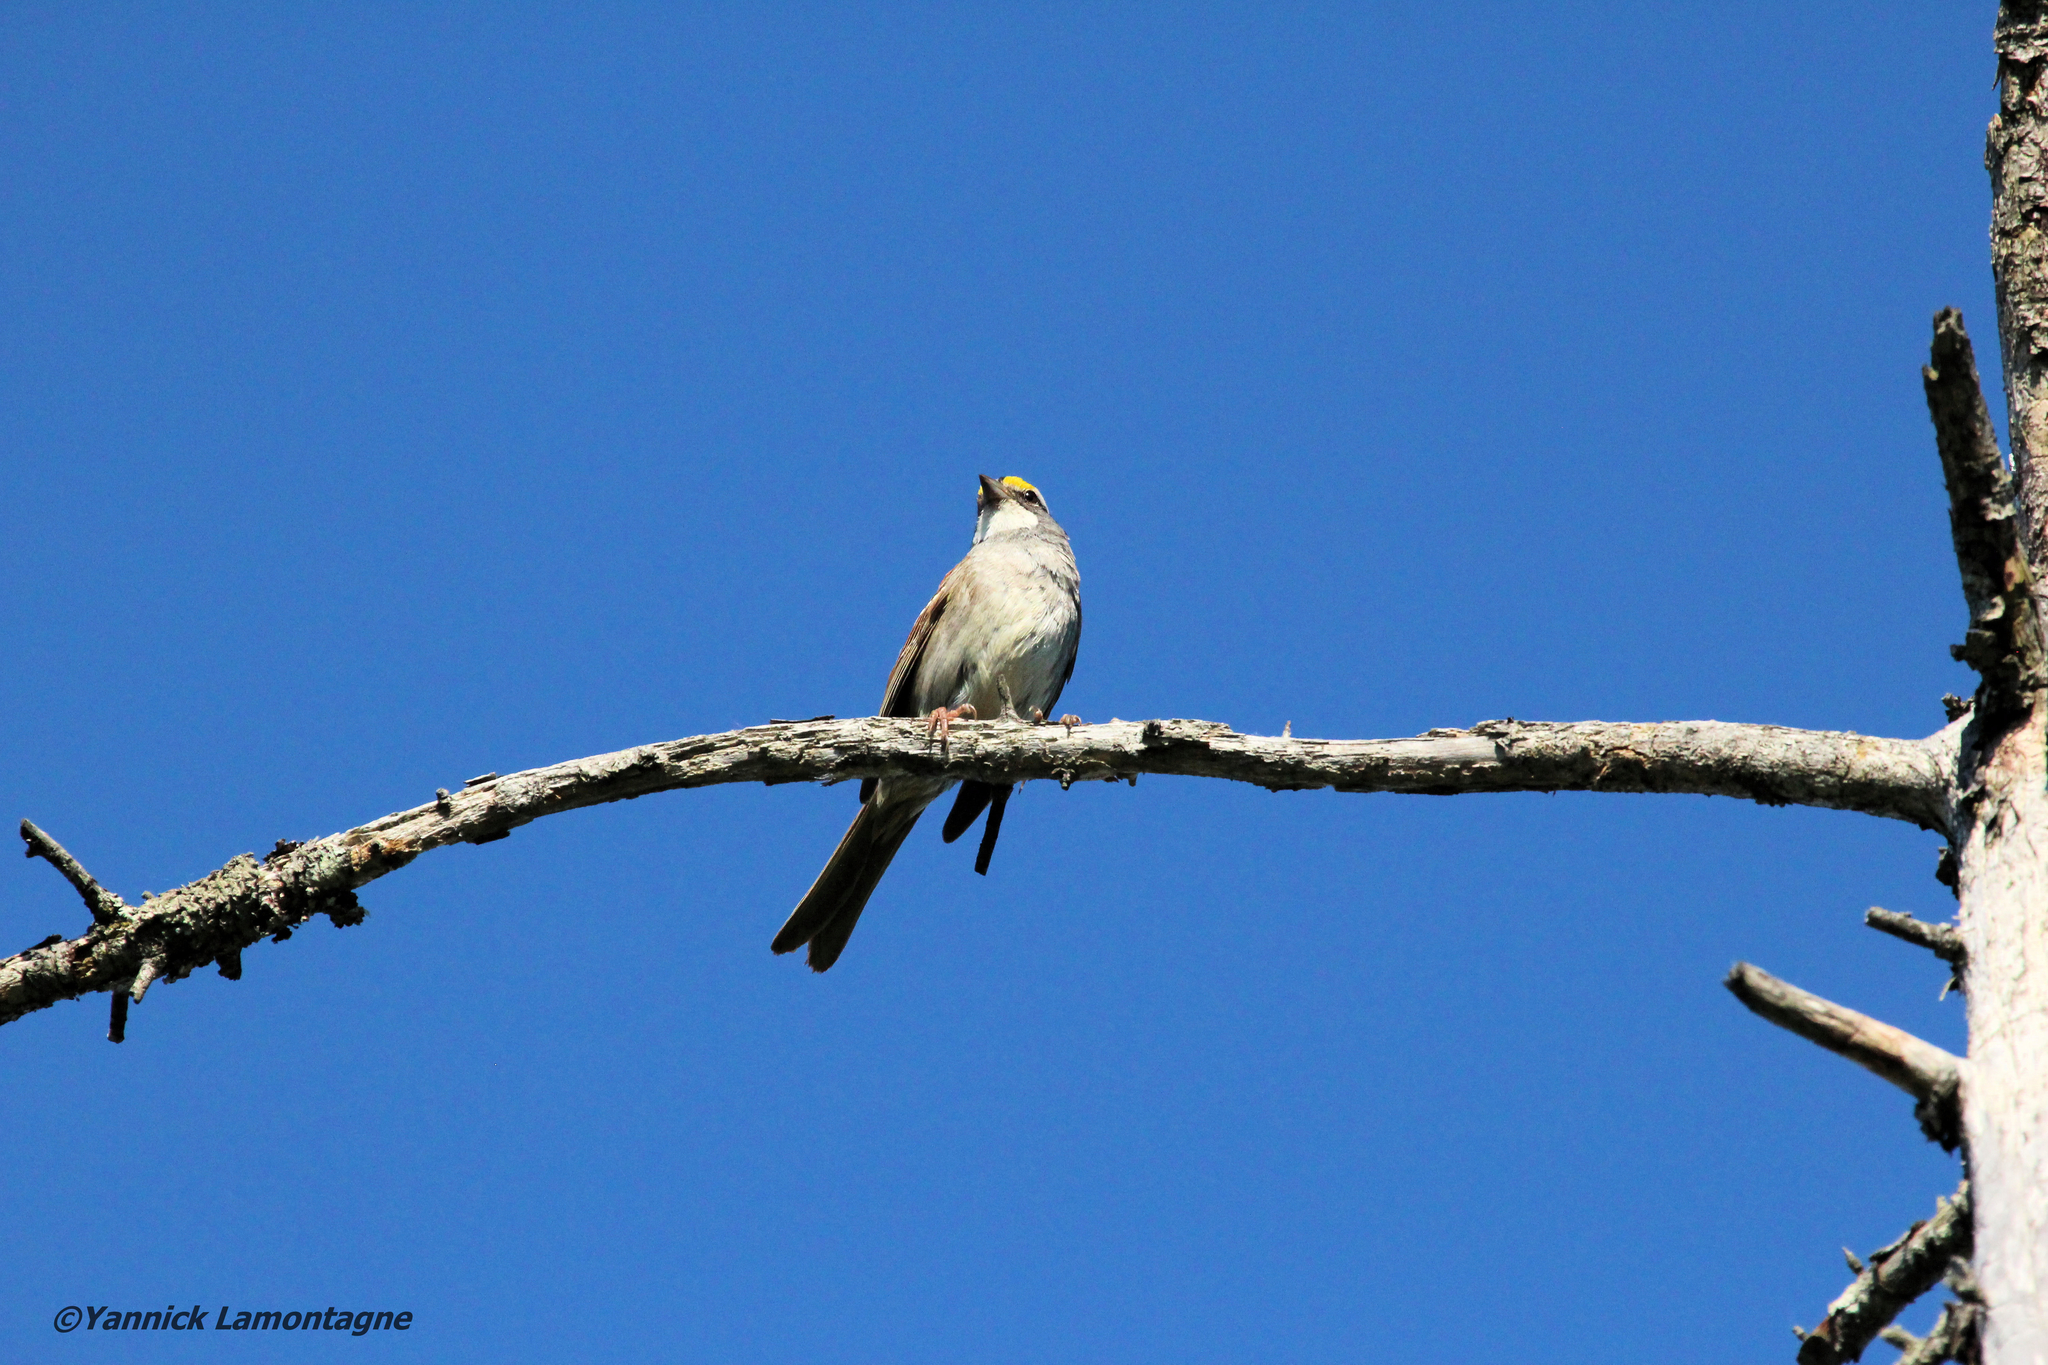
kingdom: Animalia
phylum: Chordata
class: Aves
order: Passeriformes
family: Passerellidae
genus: Zonotrichia
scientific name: Zonotrichia albicollis
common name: White-throated sparrow
